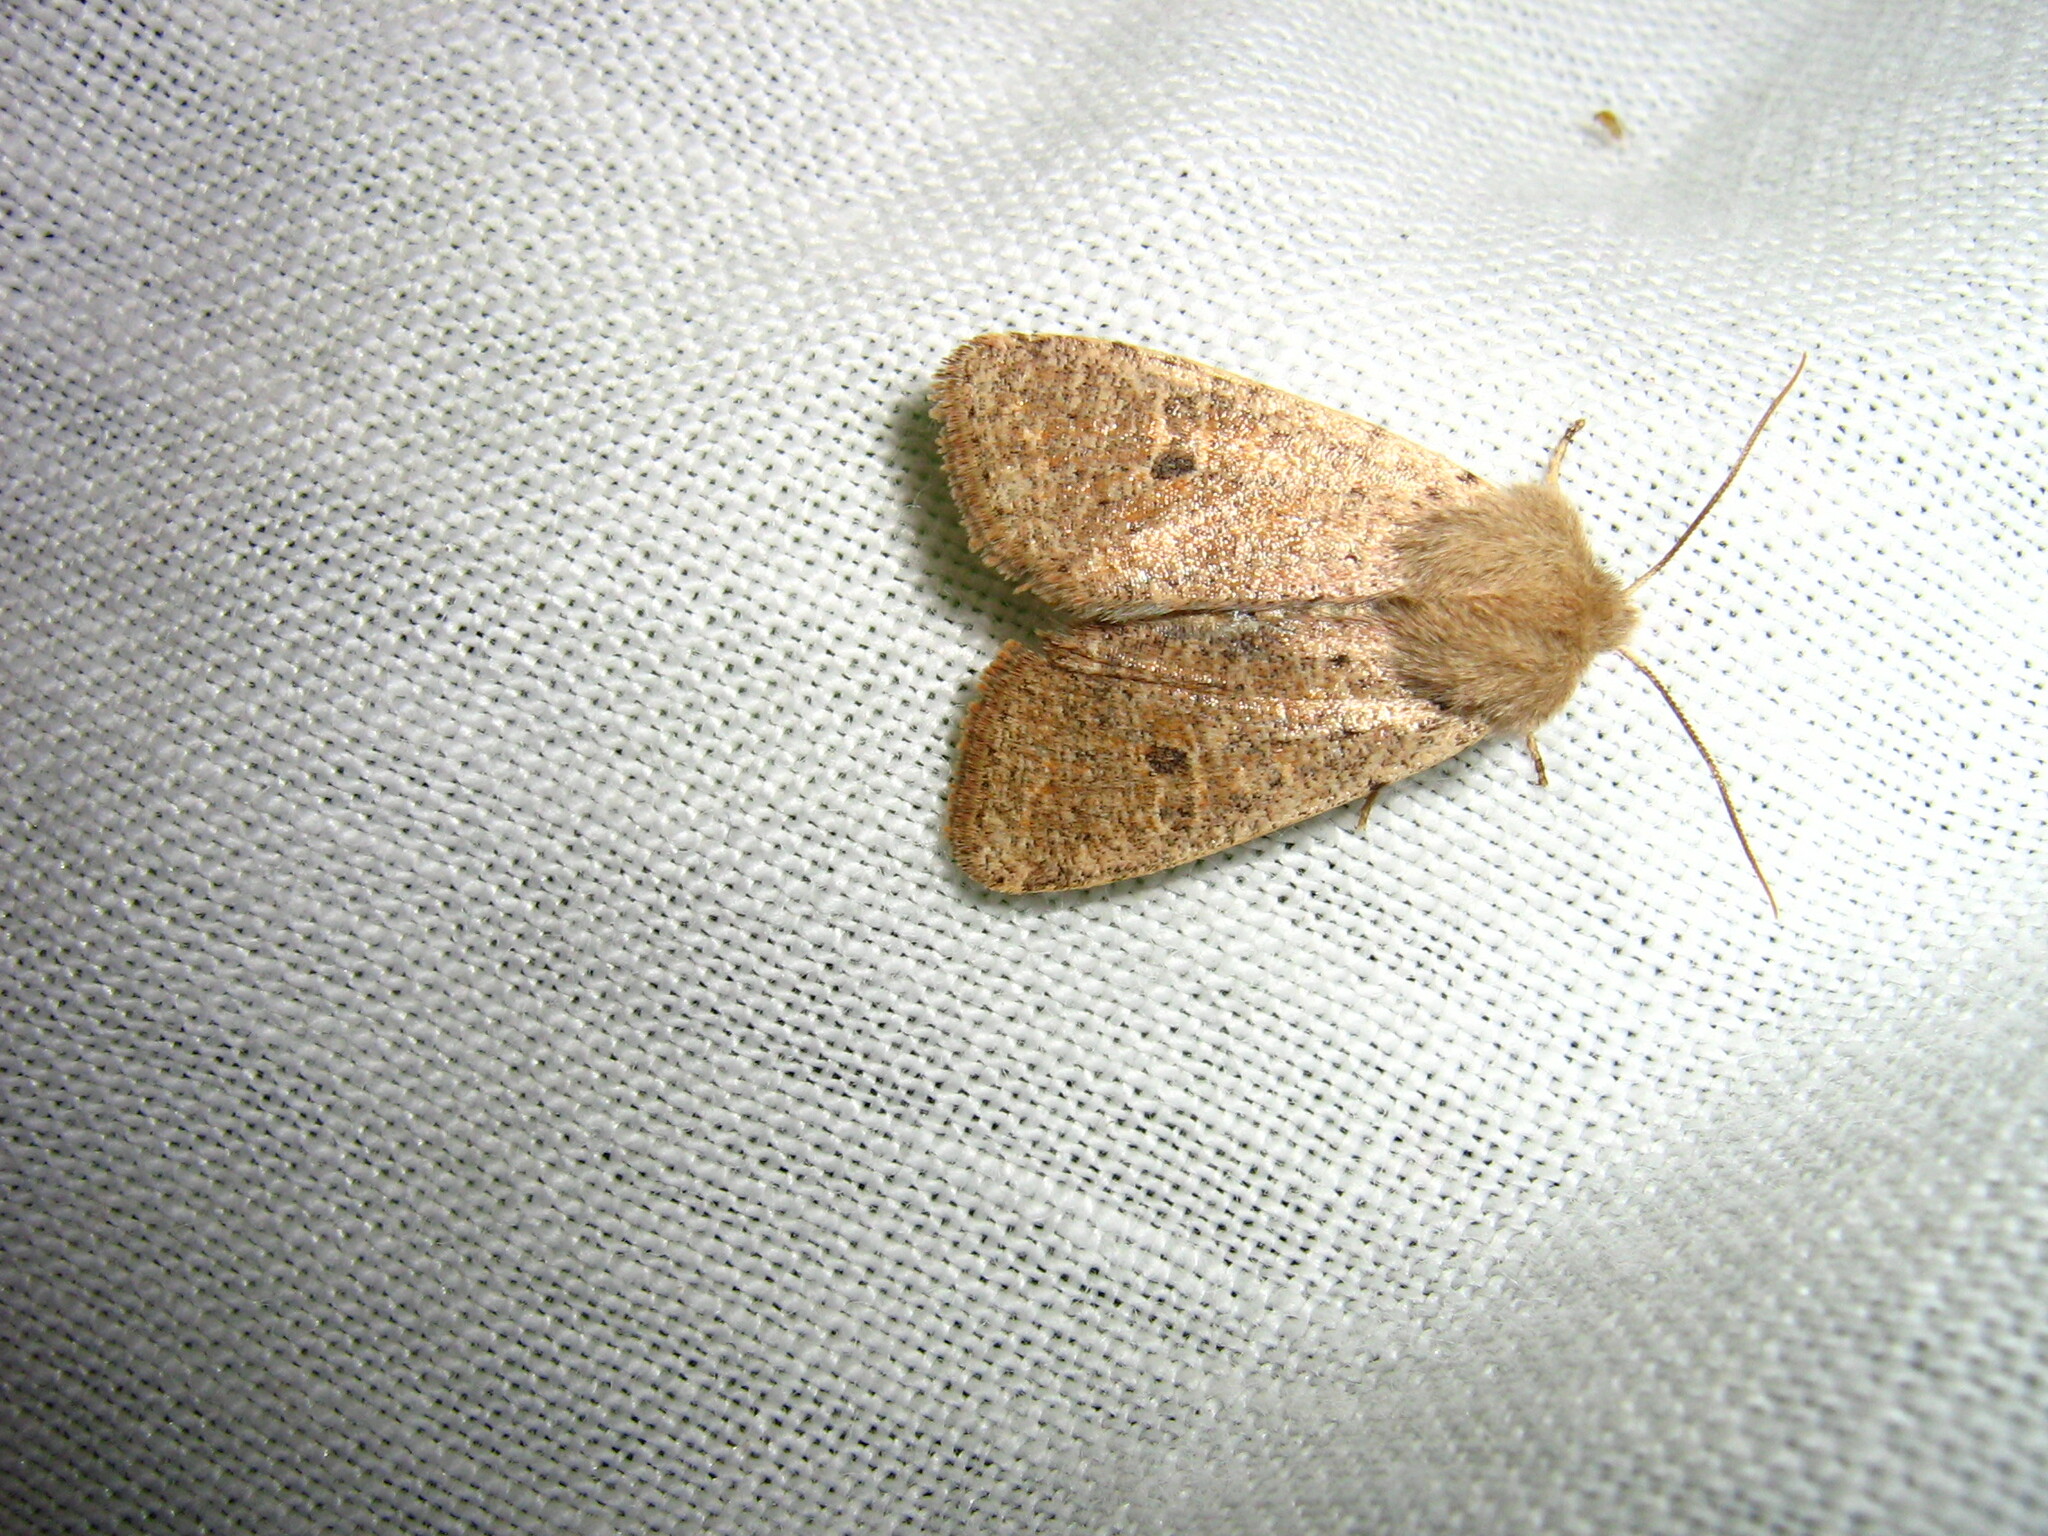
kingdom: Animalia
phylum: Arthropoda
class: Insecta
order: Lepidoptera
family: Noctuidae
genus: Orthosia
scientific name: Orthosia cruda
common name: Small quaker
